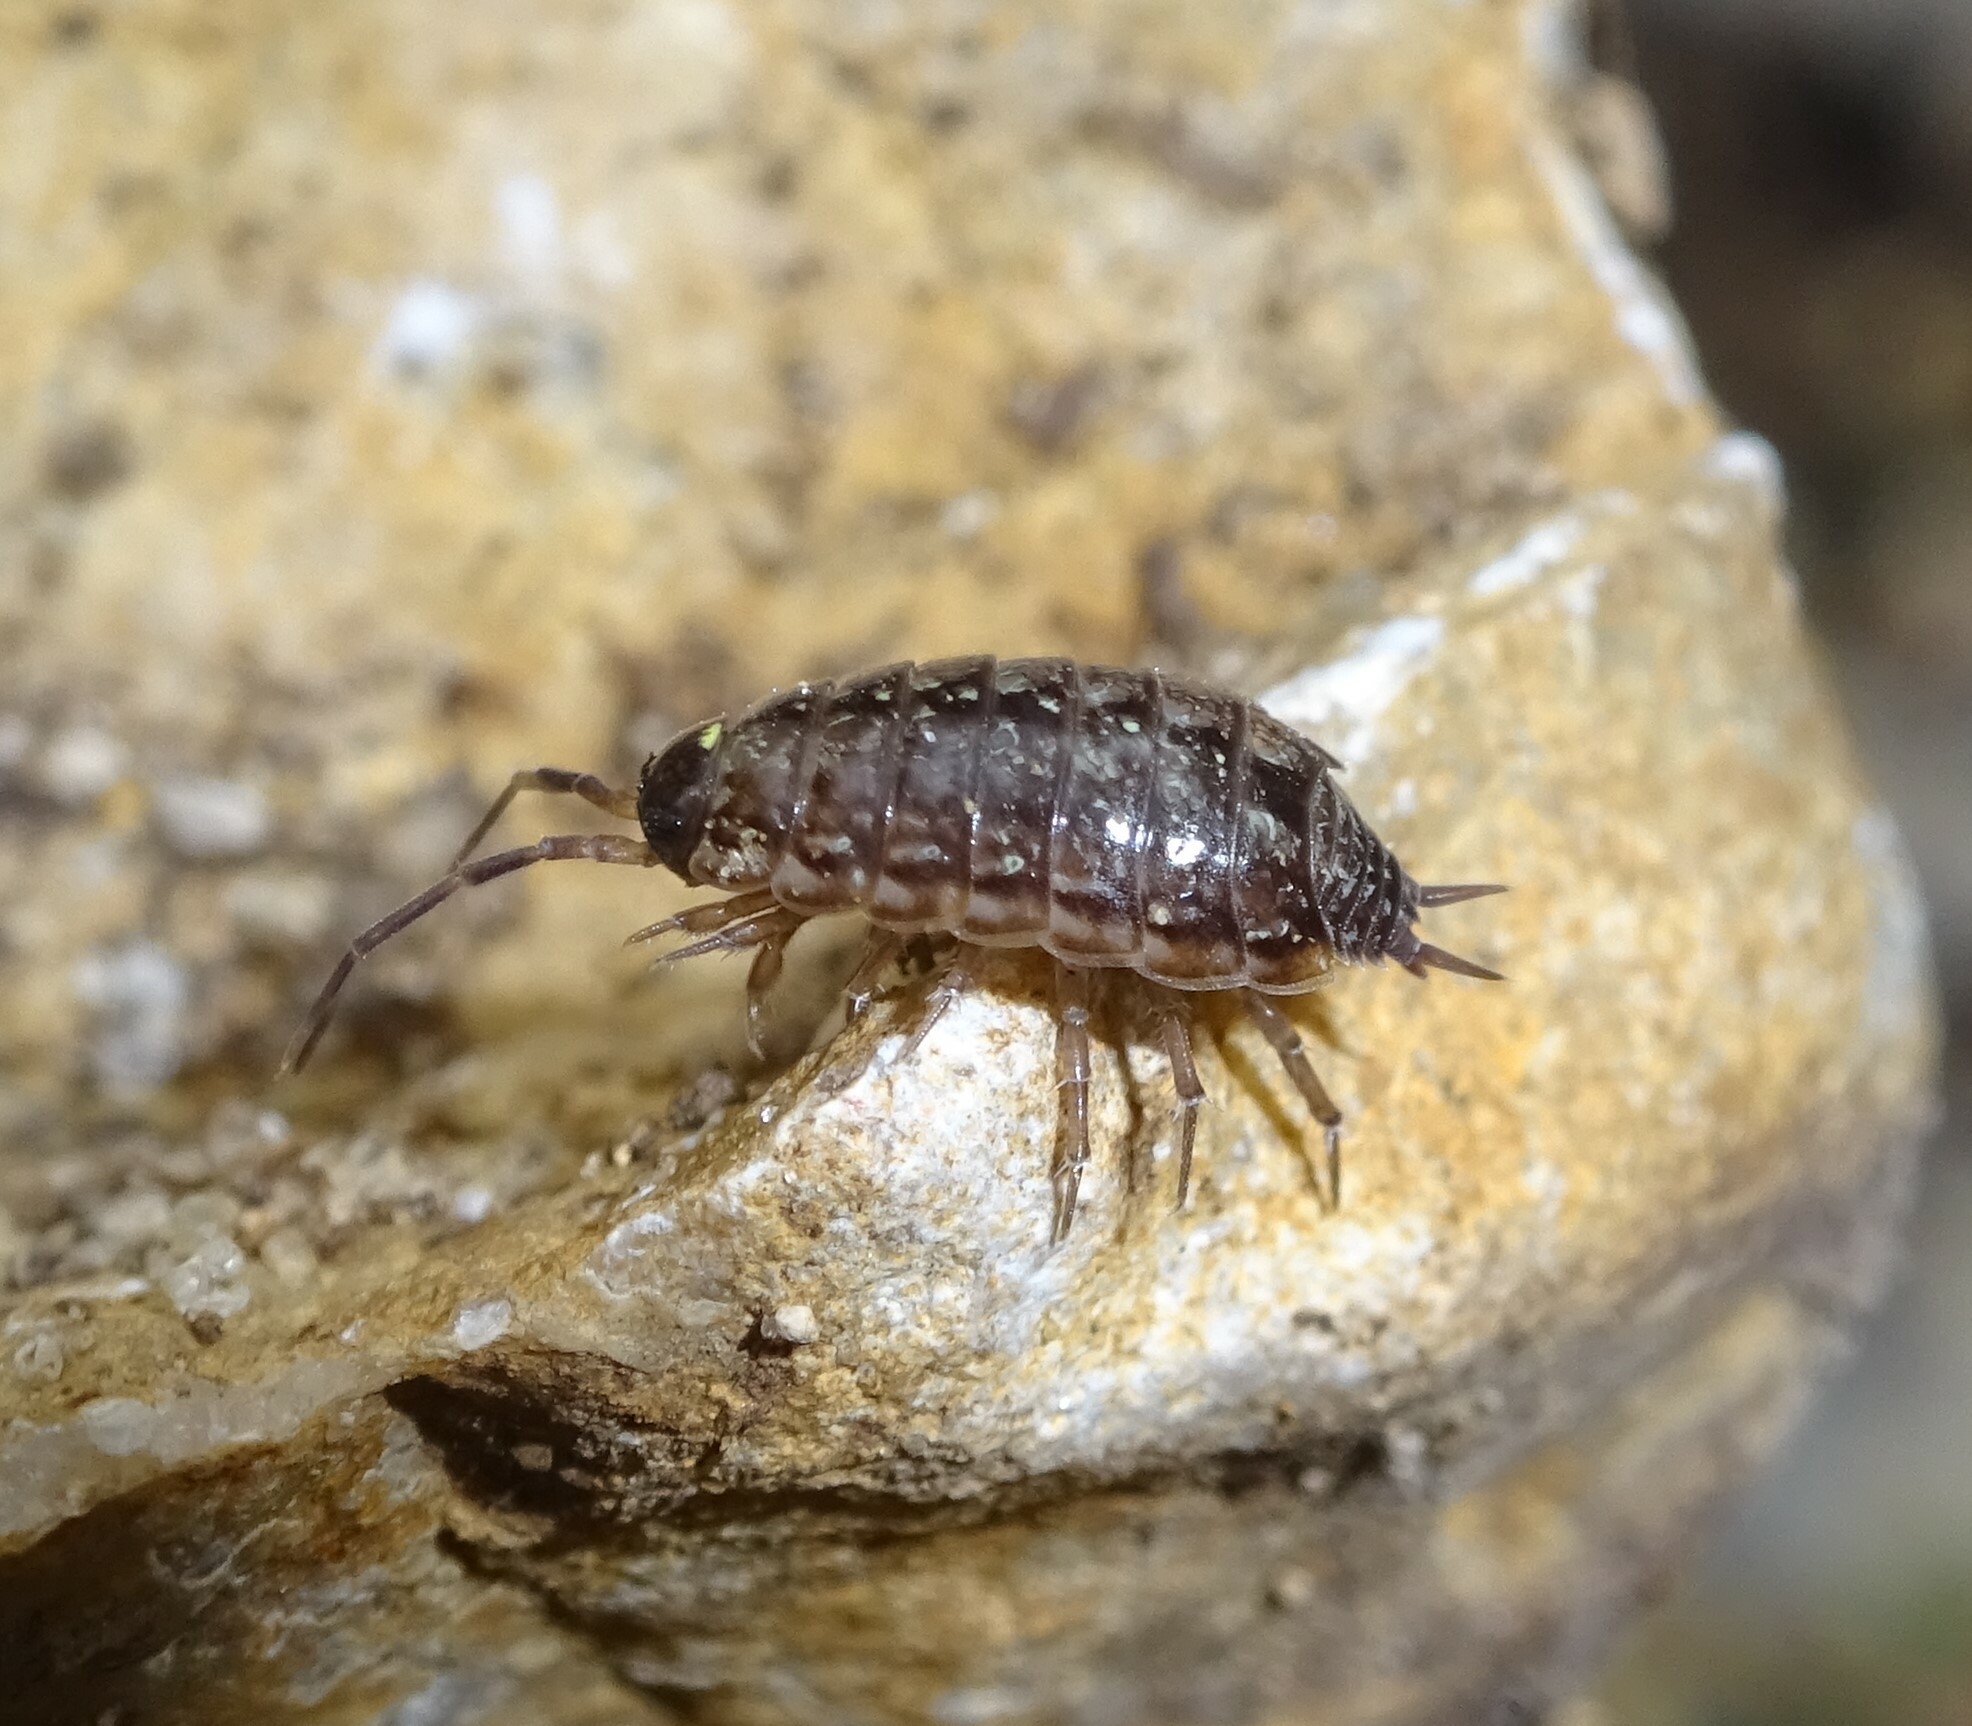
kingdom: Animalia
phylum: Arthropoda
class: Malacostraca
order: Isopoda
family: Philosciidae
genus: Philoscia
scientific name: Philoscia muscorum
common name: Common striped woodlouse
